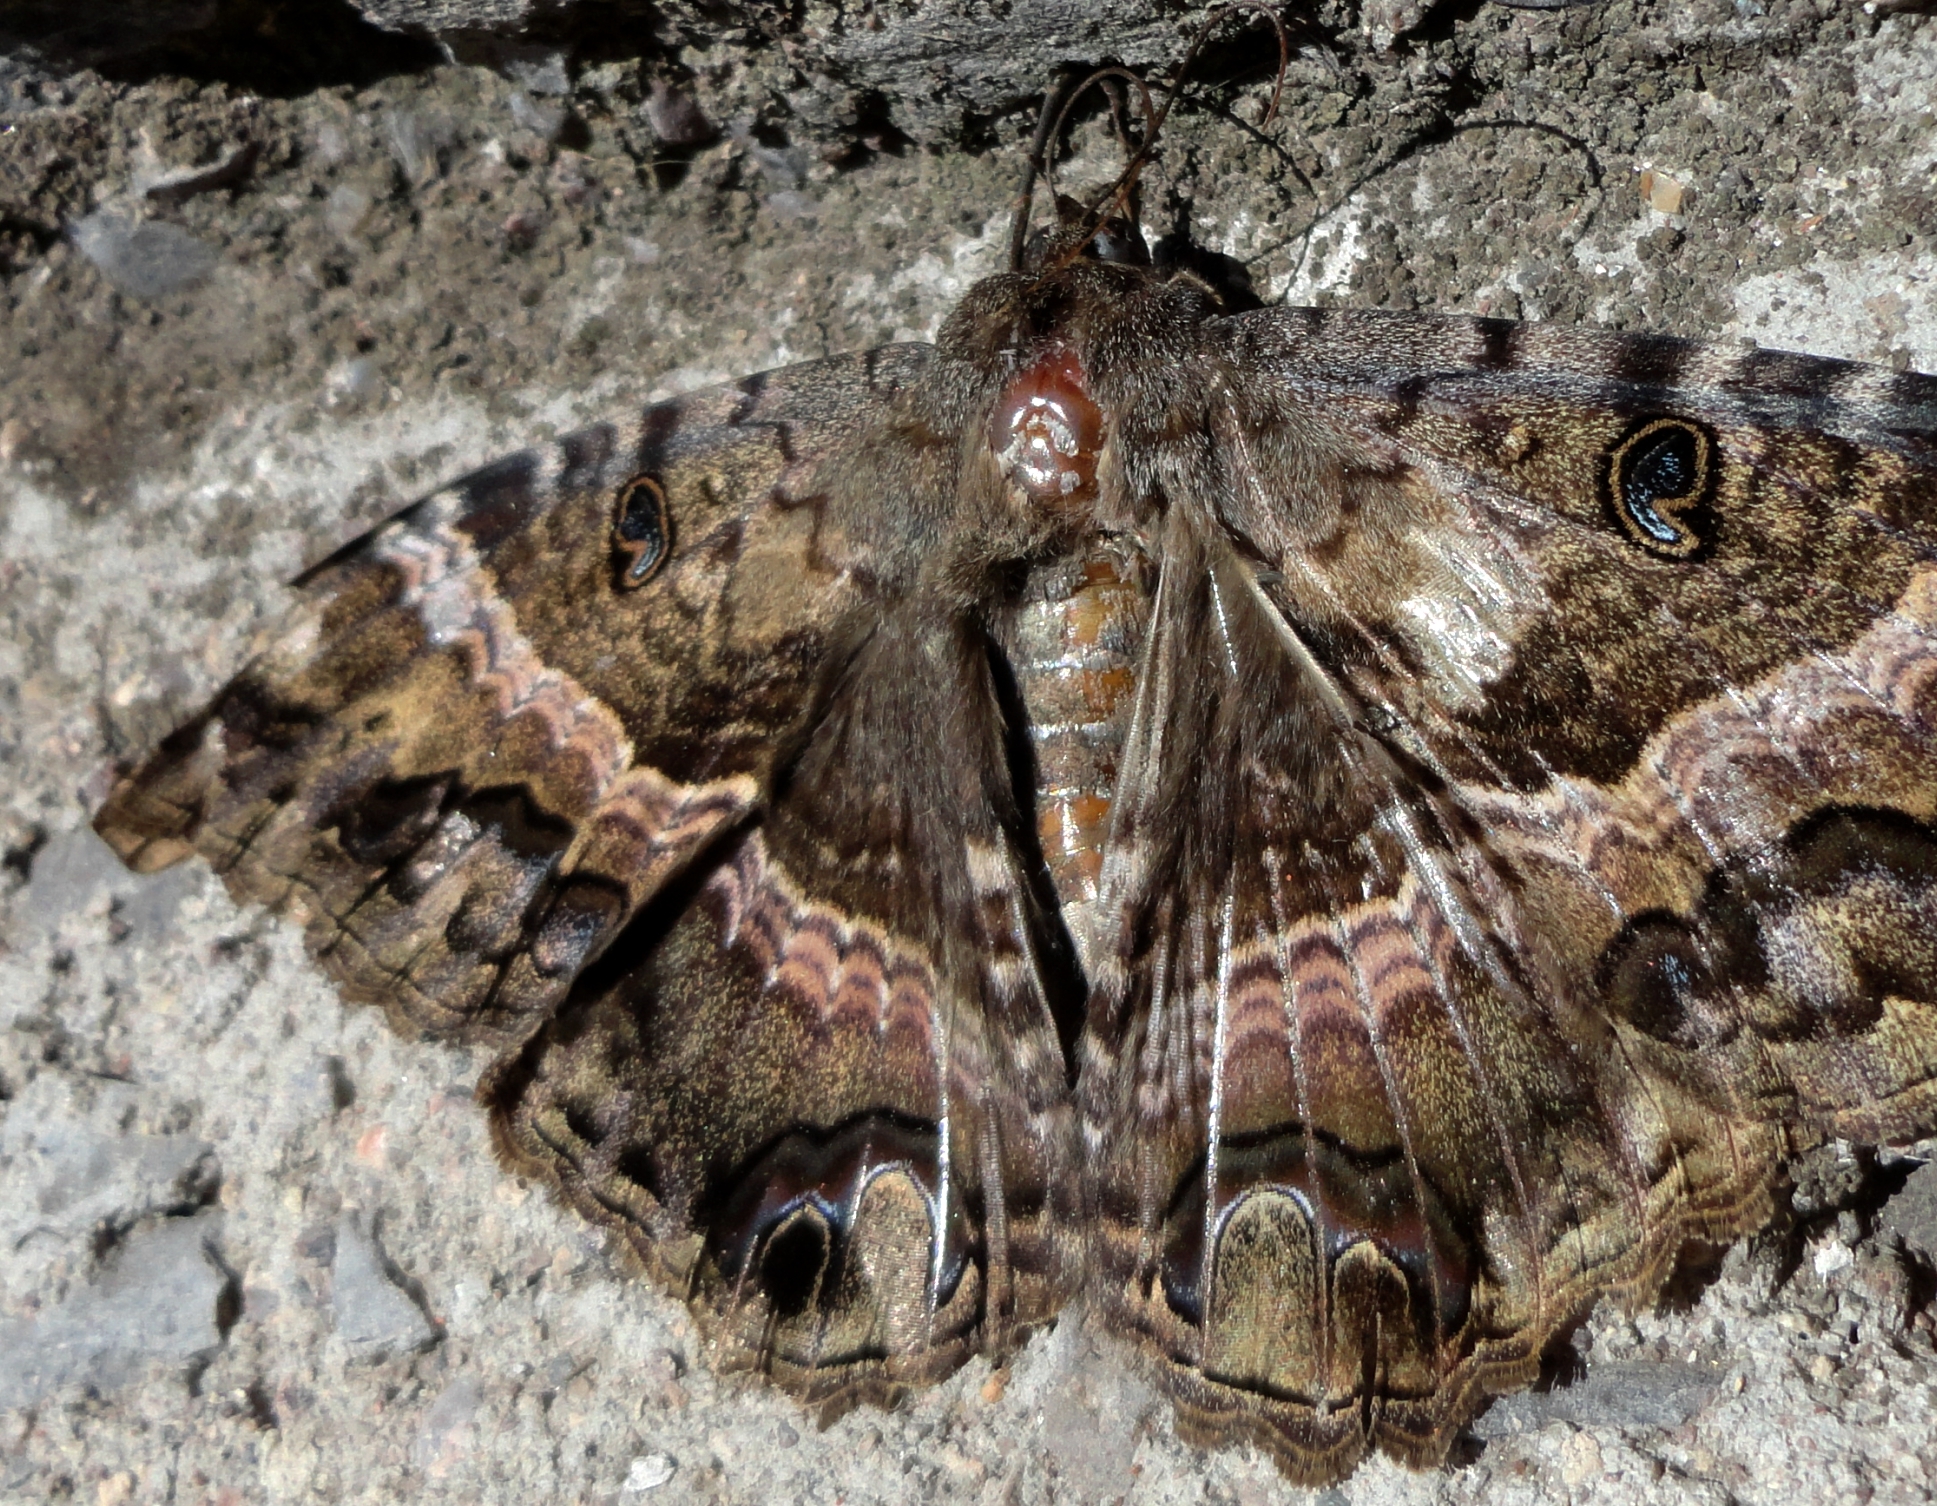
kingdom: Animalia
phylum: Arthropoda
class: Insecta
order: Lepidoptera
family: Erebidae
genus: Ascalapha
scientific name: Ascalapha odorata
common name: Black witch
